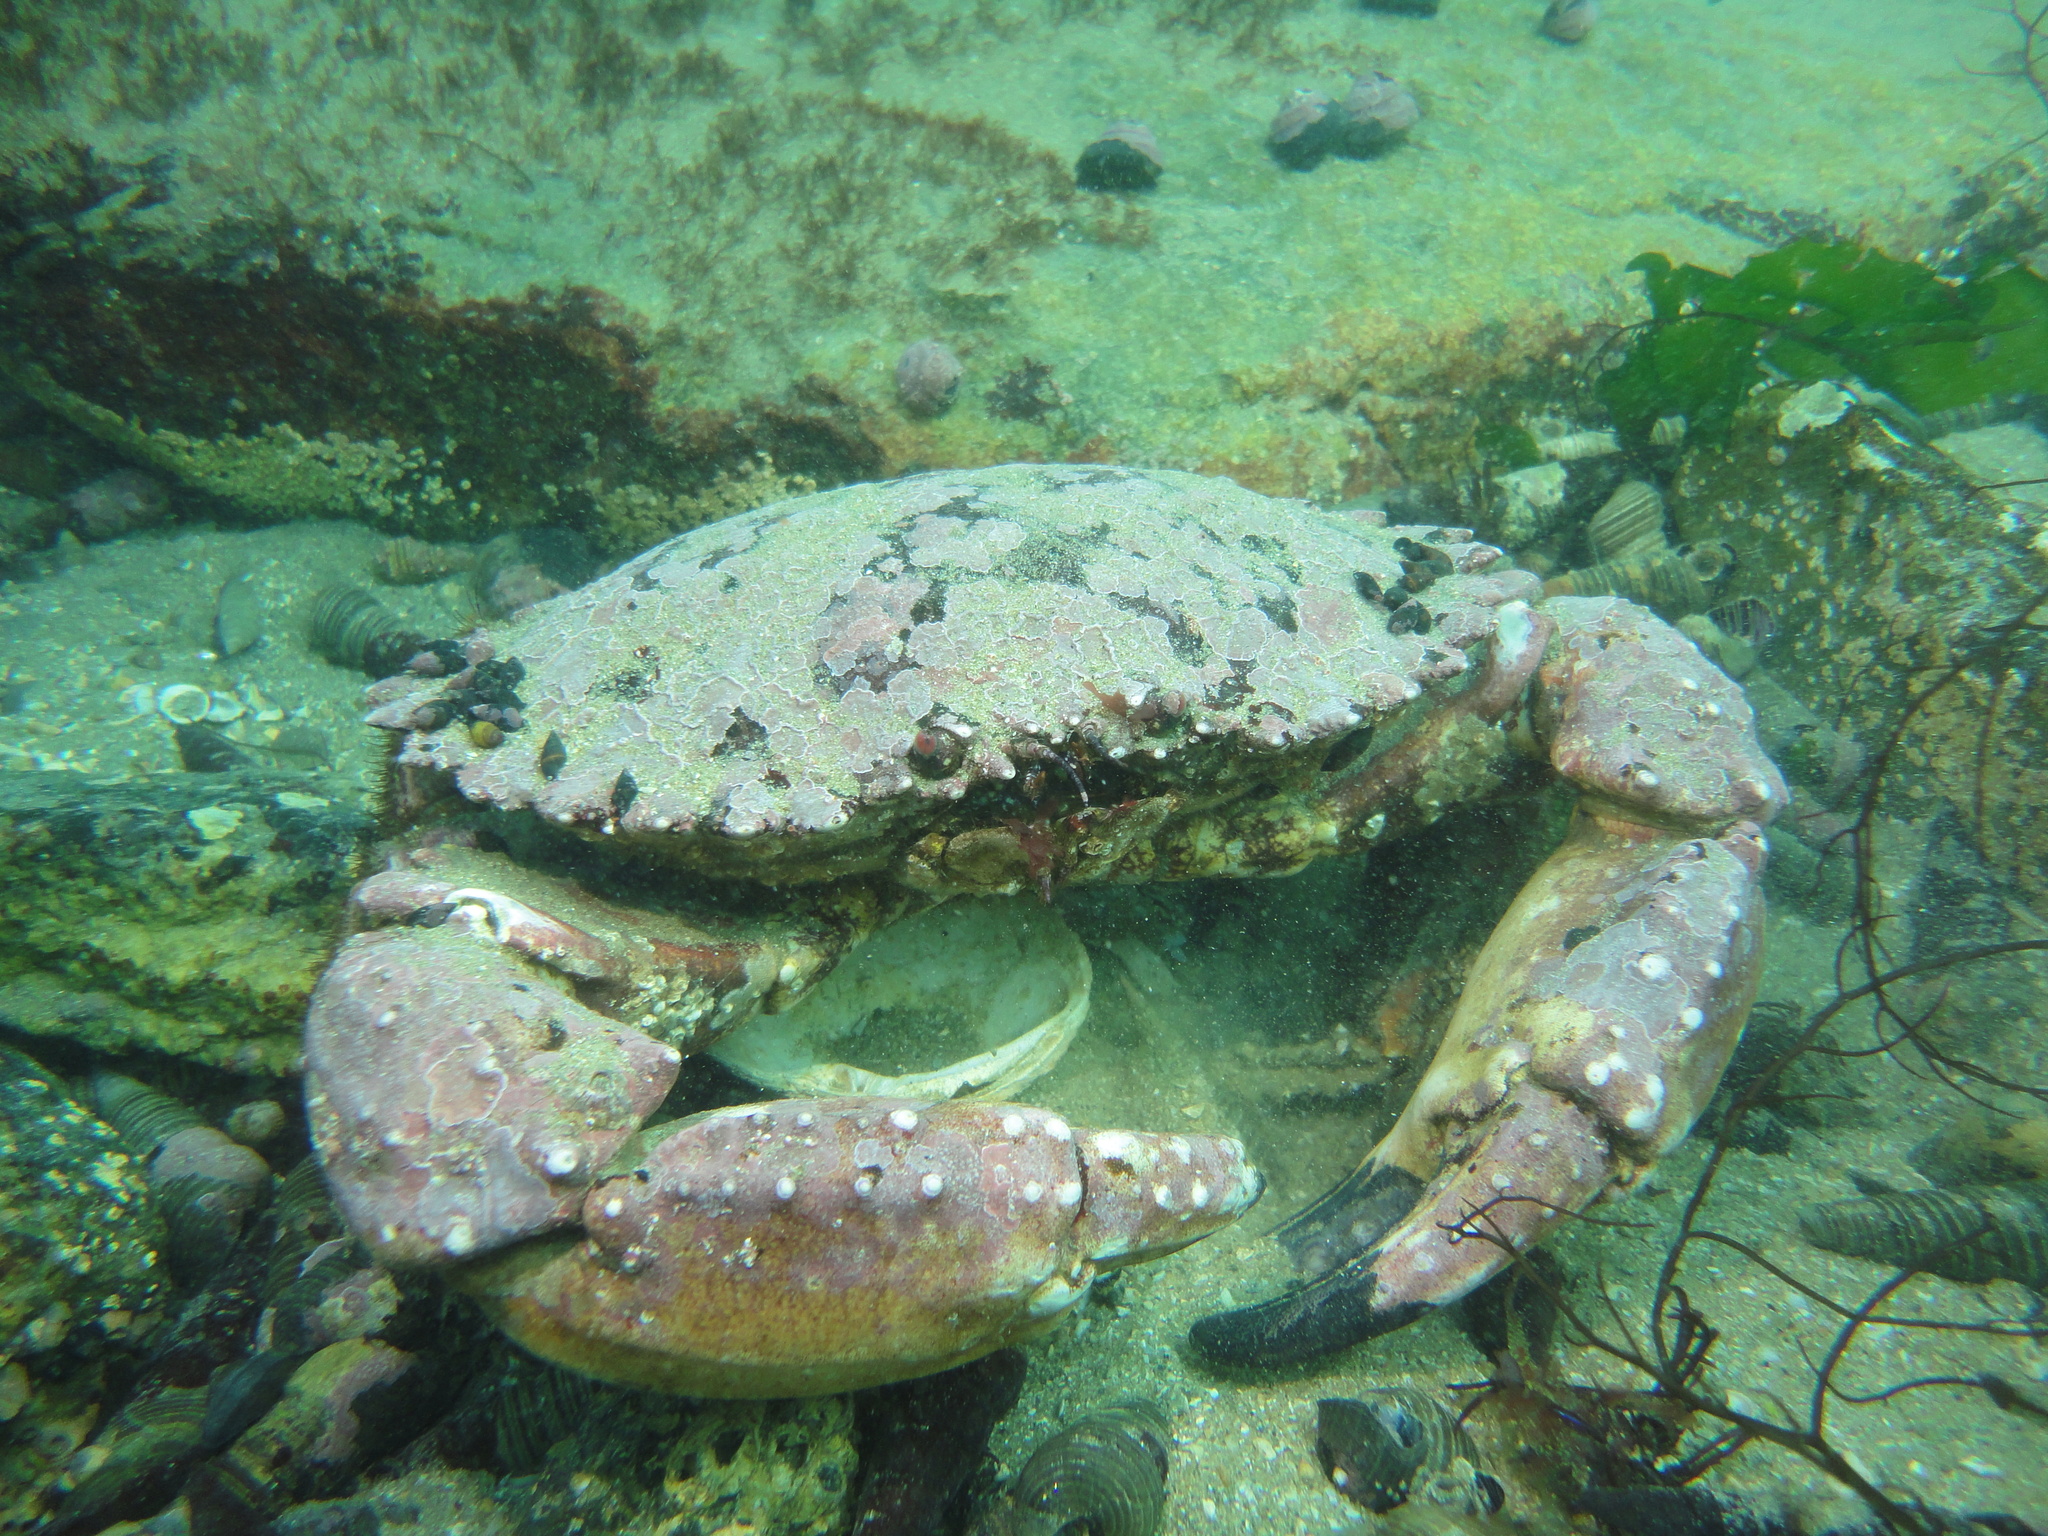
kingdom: Animalia
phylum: Arthropoda
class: Malacostraca
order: Decapoda
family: Cancridae
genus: Romaleon
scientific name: Romaleon setosum
